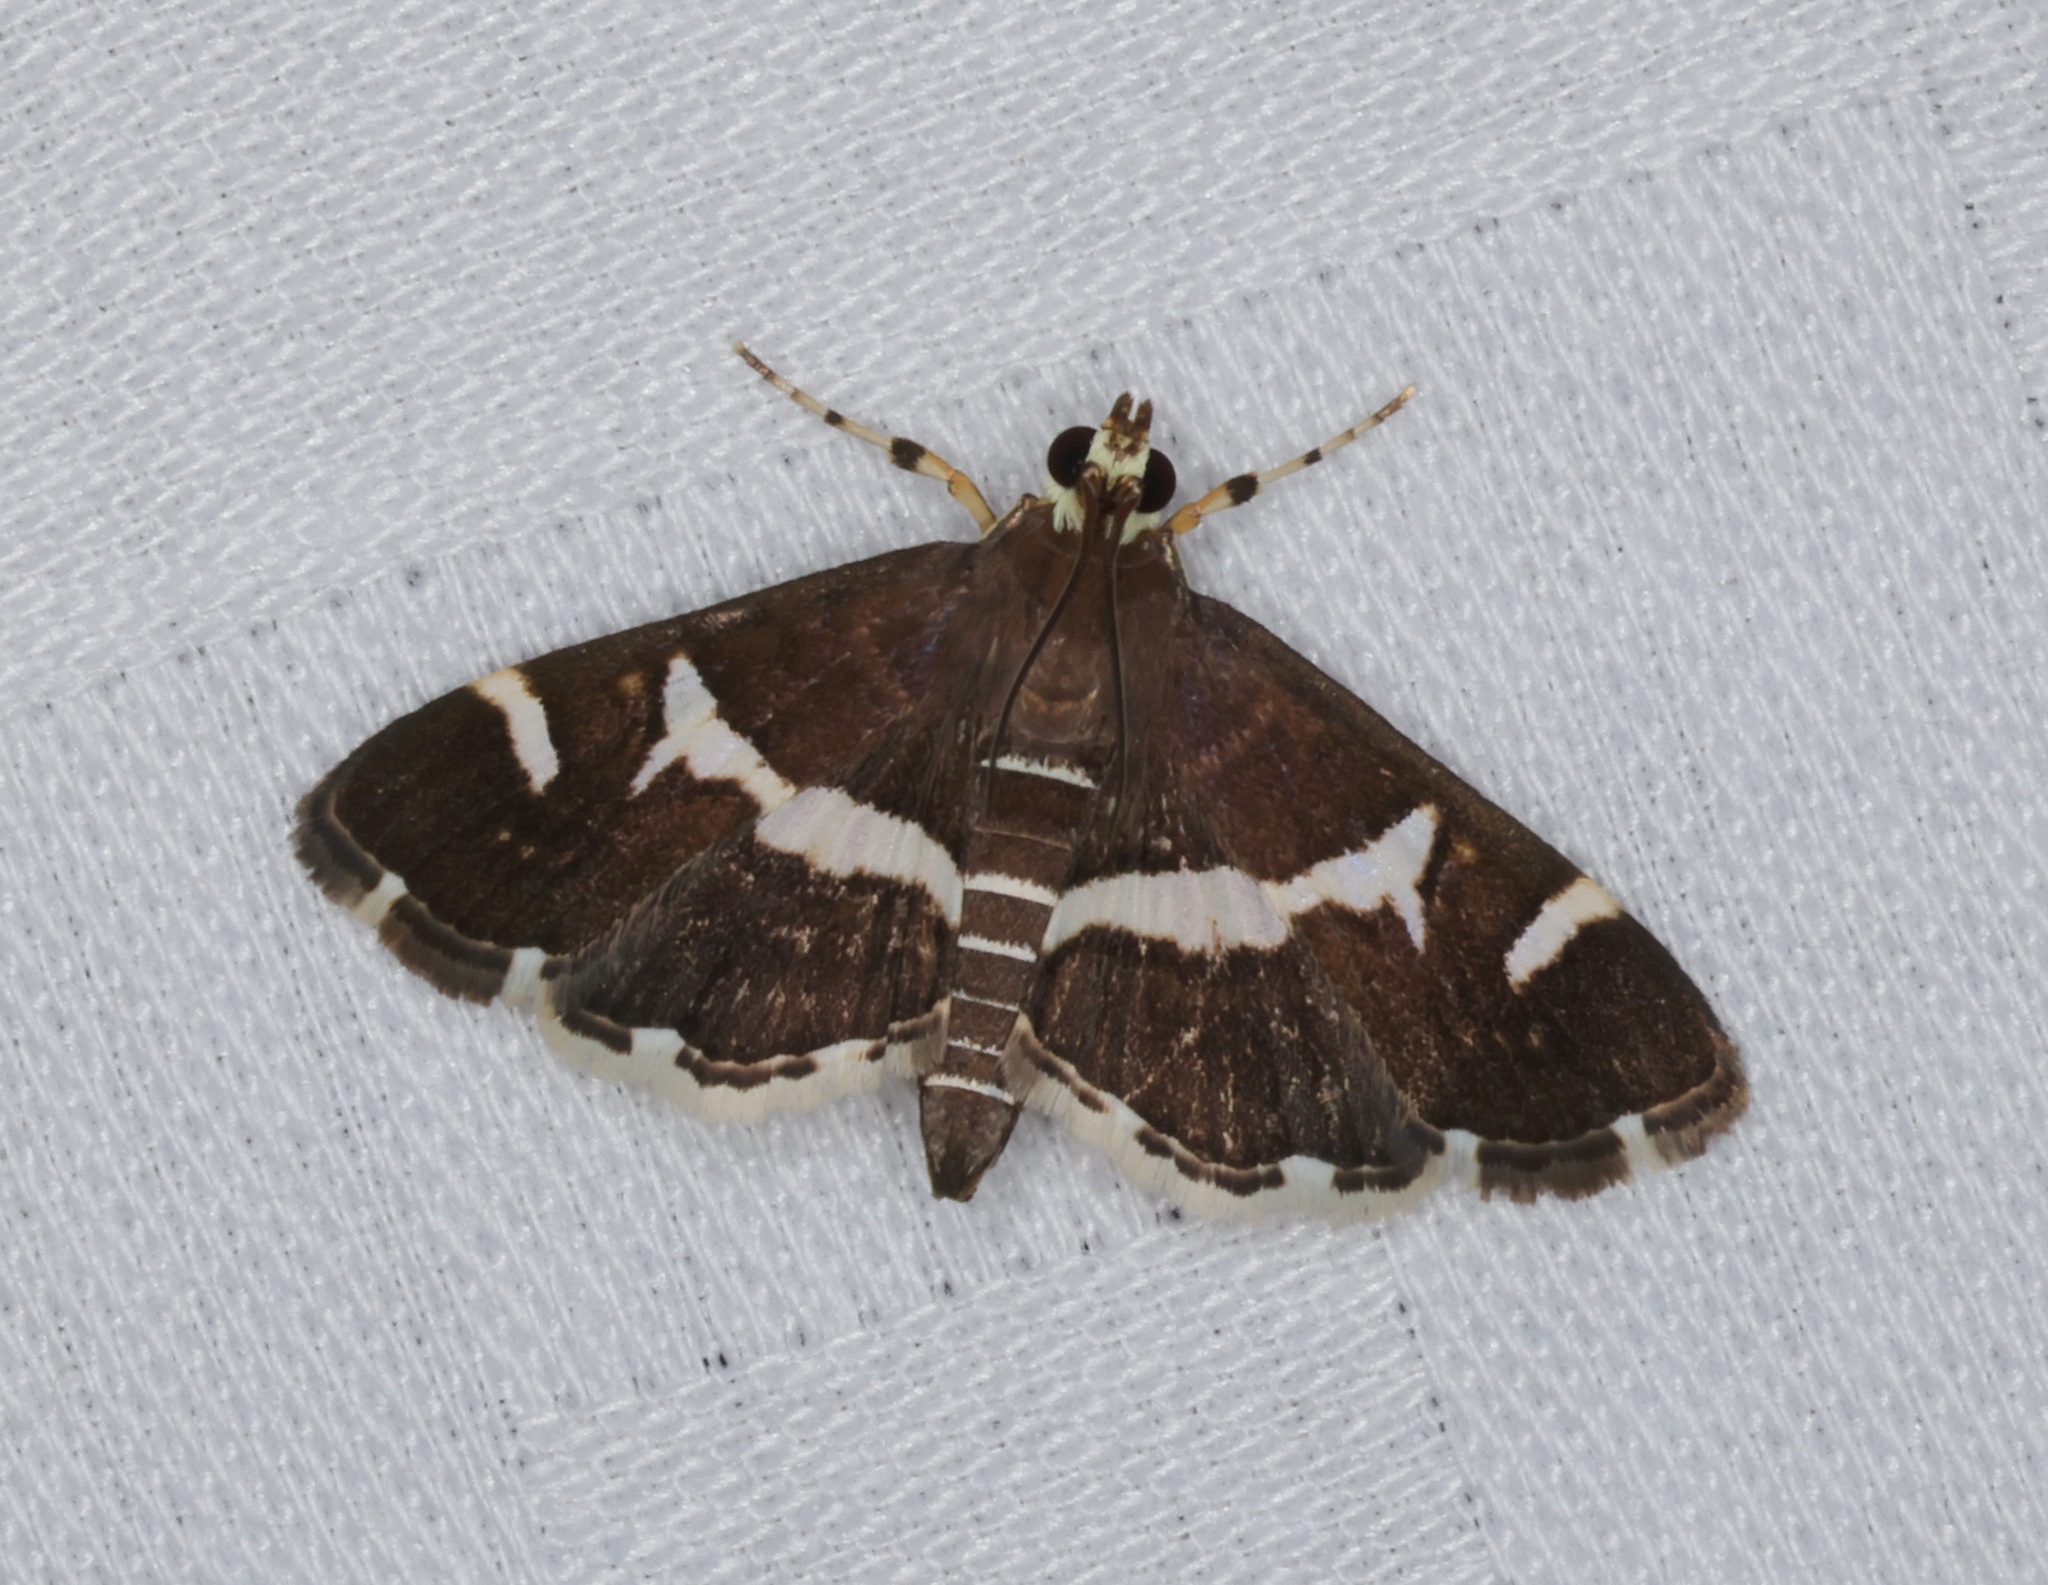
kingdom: Animalia
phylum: Arthropoda
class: Insecta
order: Lepidoptera
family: Crambidae
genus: Spoladea
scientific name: Spoladea recurvalis
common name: Beet webworm moth
